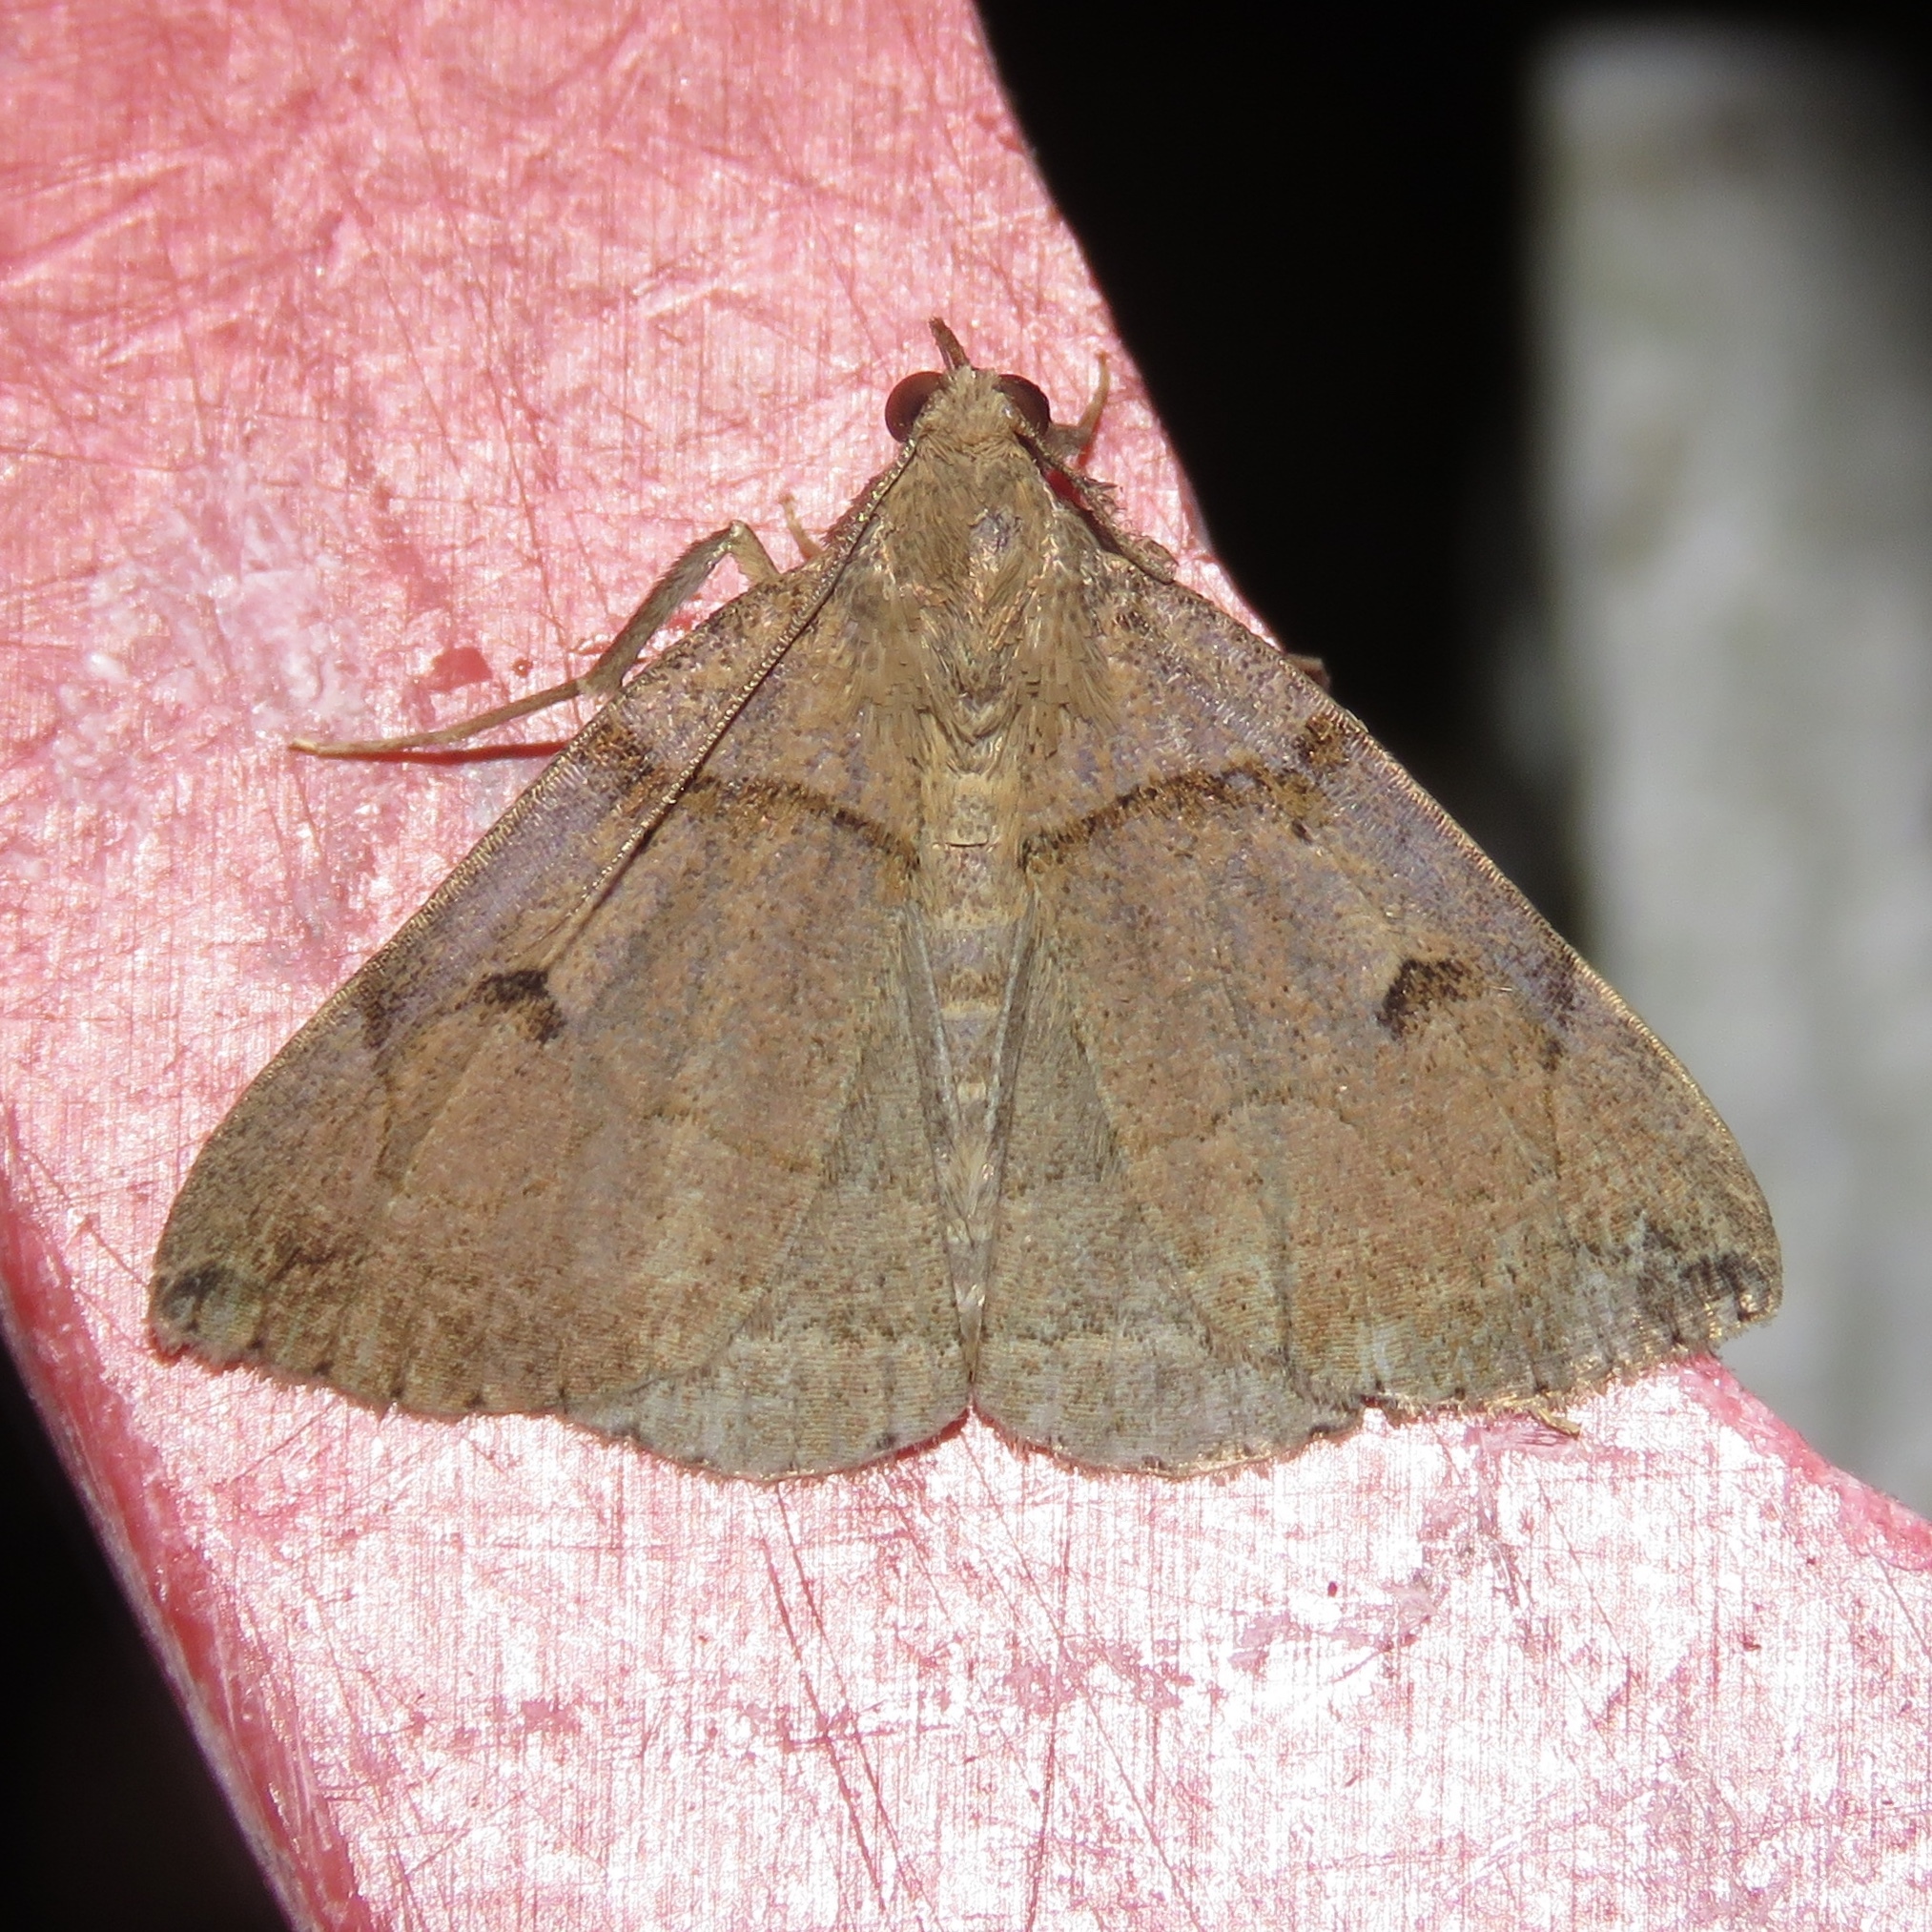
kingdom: Animalia
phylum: Arthropoda
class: Insecta
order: Lepidoptera
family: Erebidae
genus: Zanclognatha
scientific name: Zanclognatha laevigata
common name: Variable fan-foot
